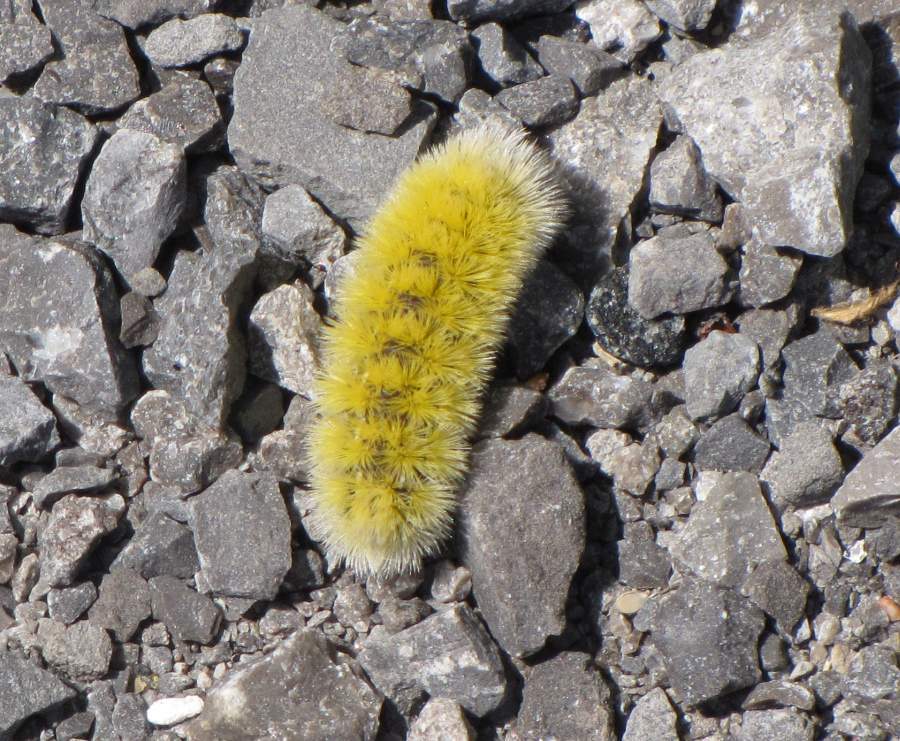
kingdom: Animalia
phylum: Arthropoda
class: Insecta
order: Lepidoptera
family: Erebidae
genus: Ctenucha
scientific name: Ctenucha virginica
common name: Virginia ctenucha moth
